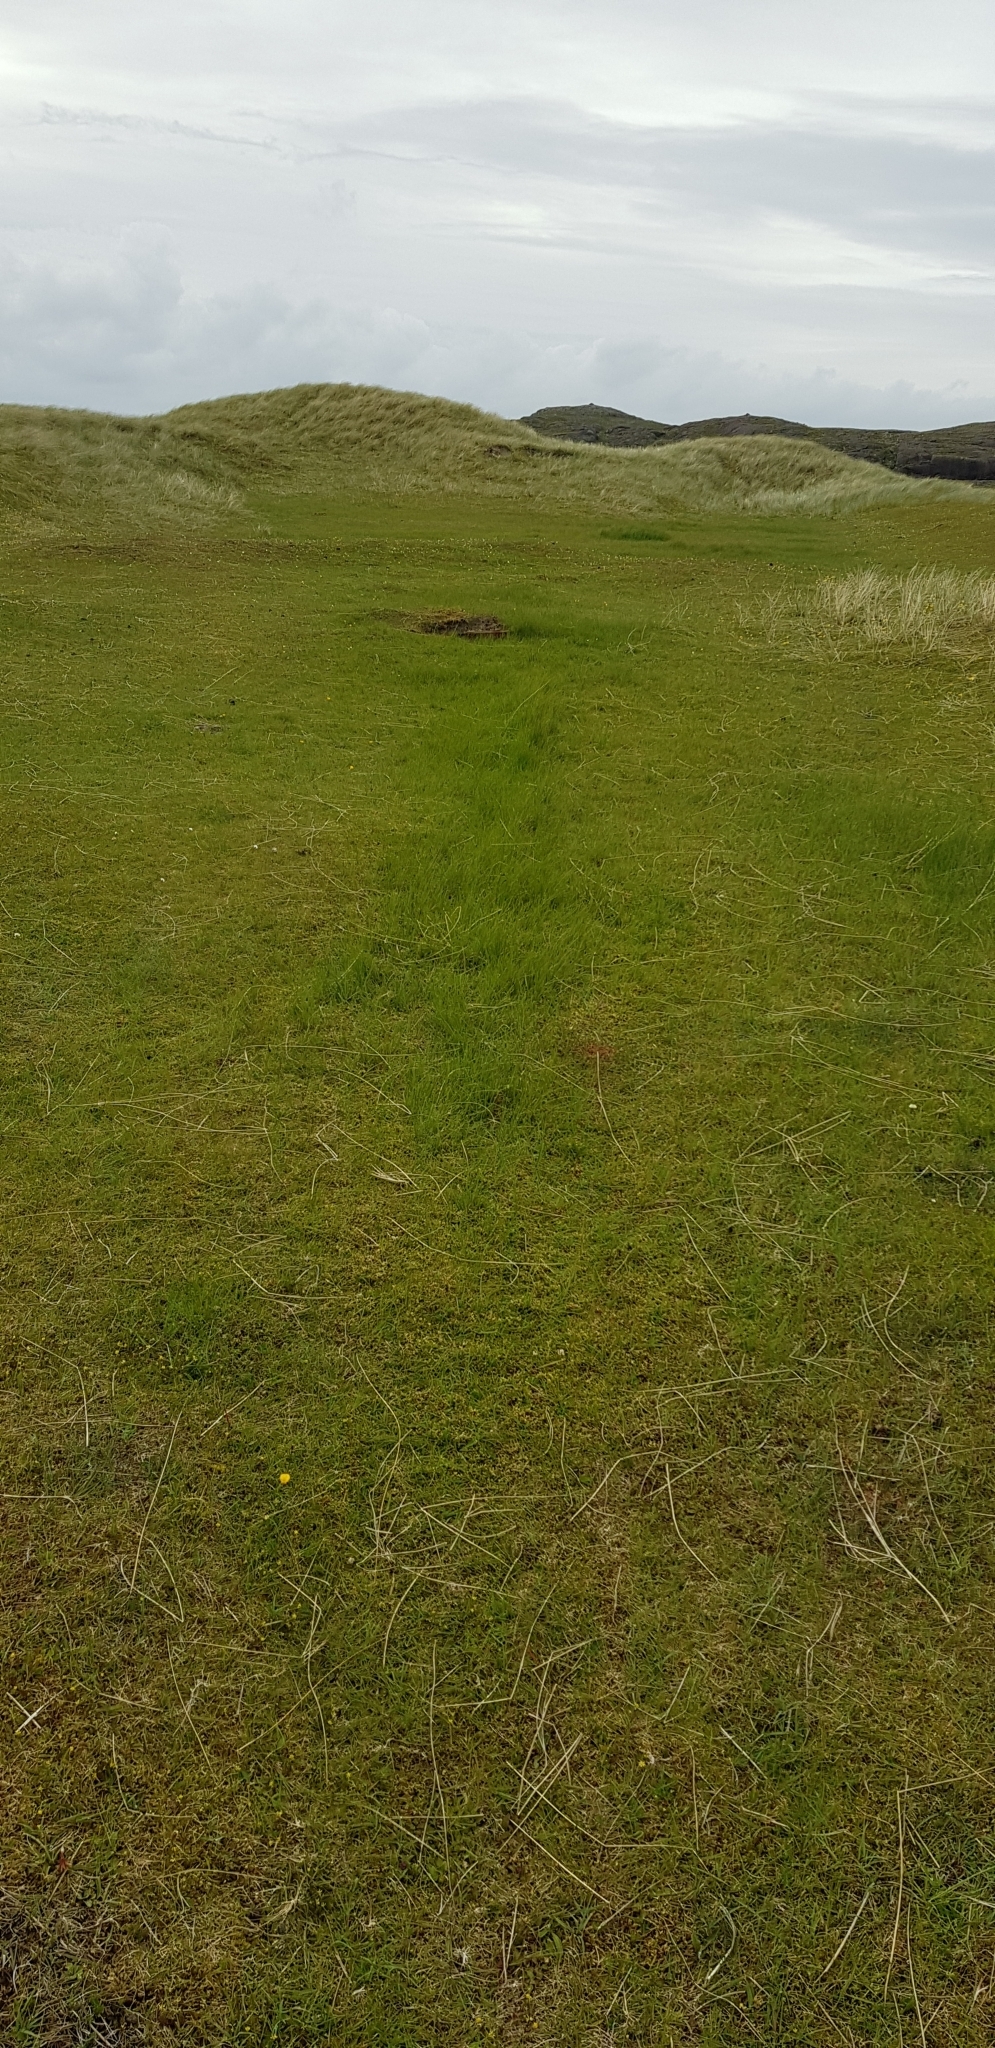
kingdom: Plantae
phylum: Bryophyta
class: Bryopsida
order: Hypnales
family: Climaciaceae
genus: Climacium
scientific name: Climacium dendroides
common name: Northern tree moss
